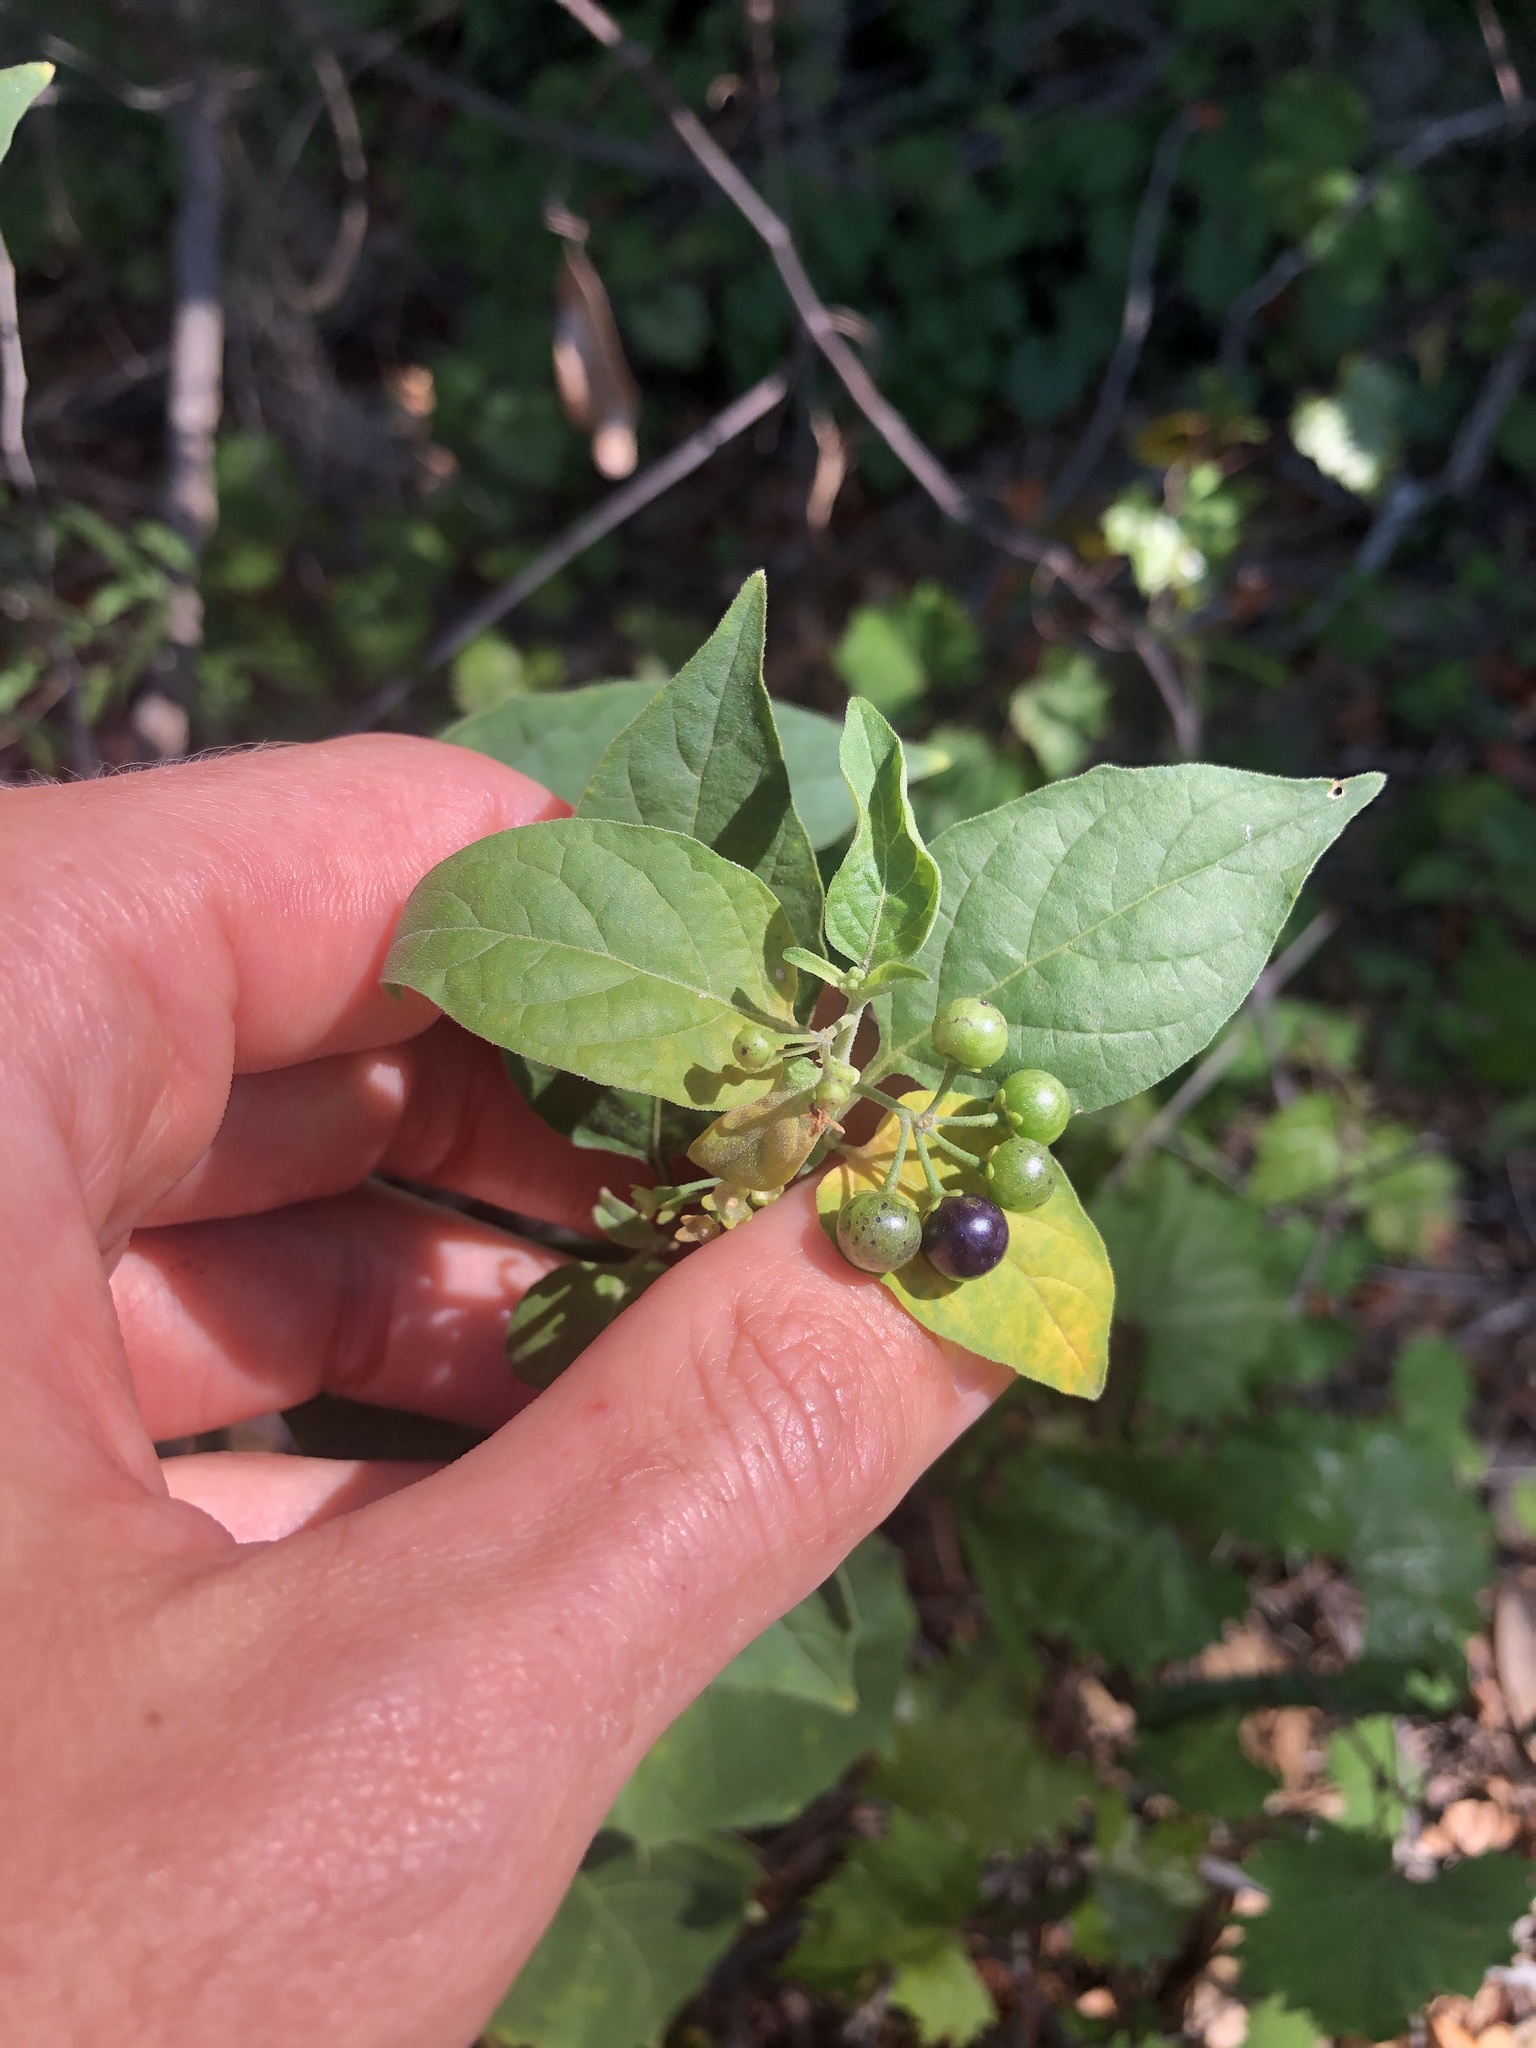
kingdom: Plantae
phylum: Tracheophyta
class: Magnoliopsida
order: Solanales
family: Solanaceae
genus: Solanum
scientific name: Solanum americanum
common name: American black nightshade
